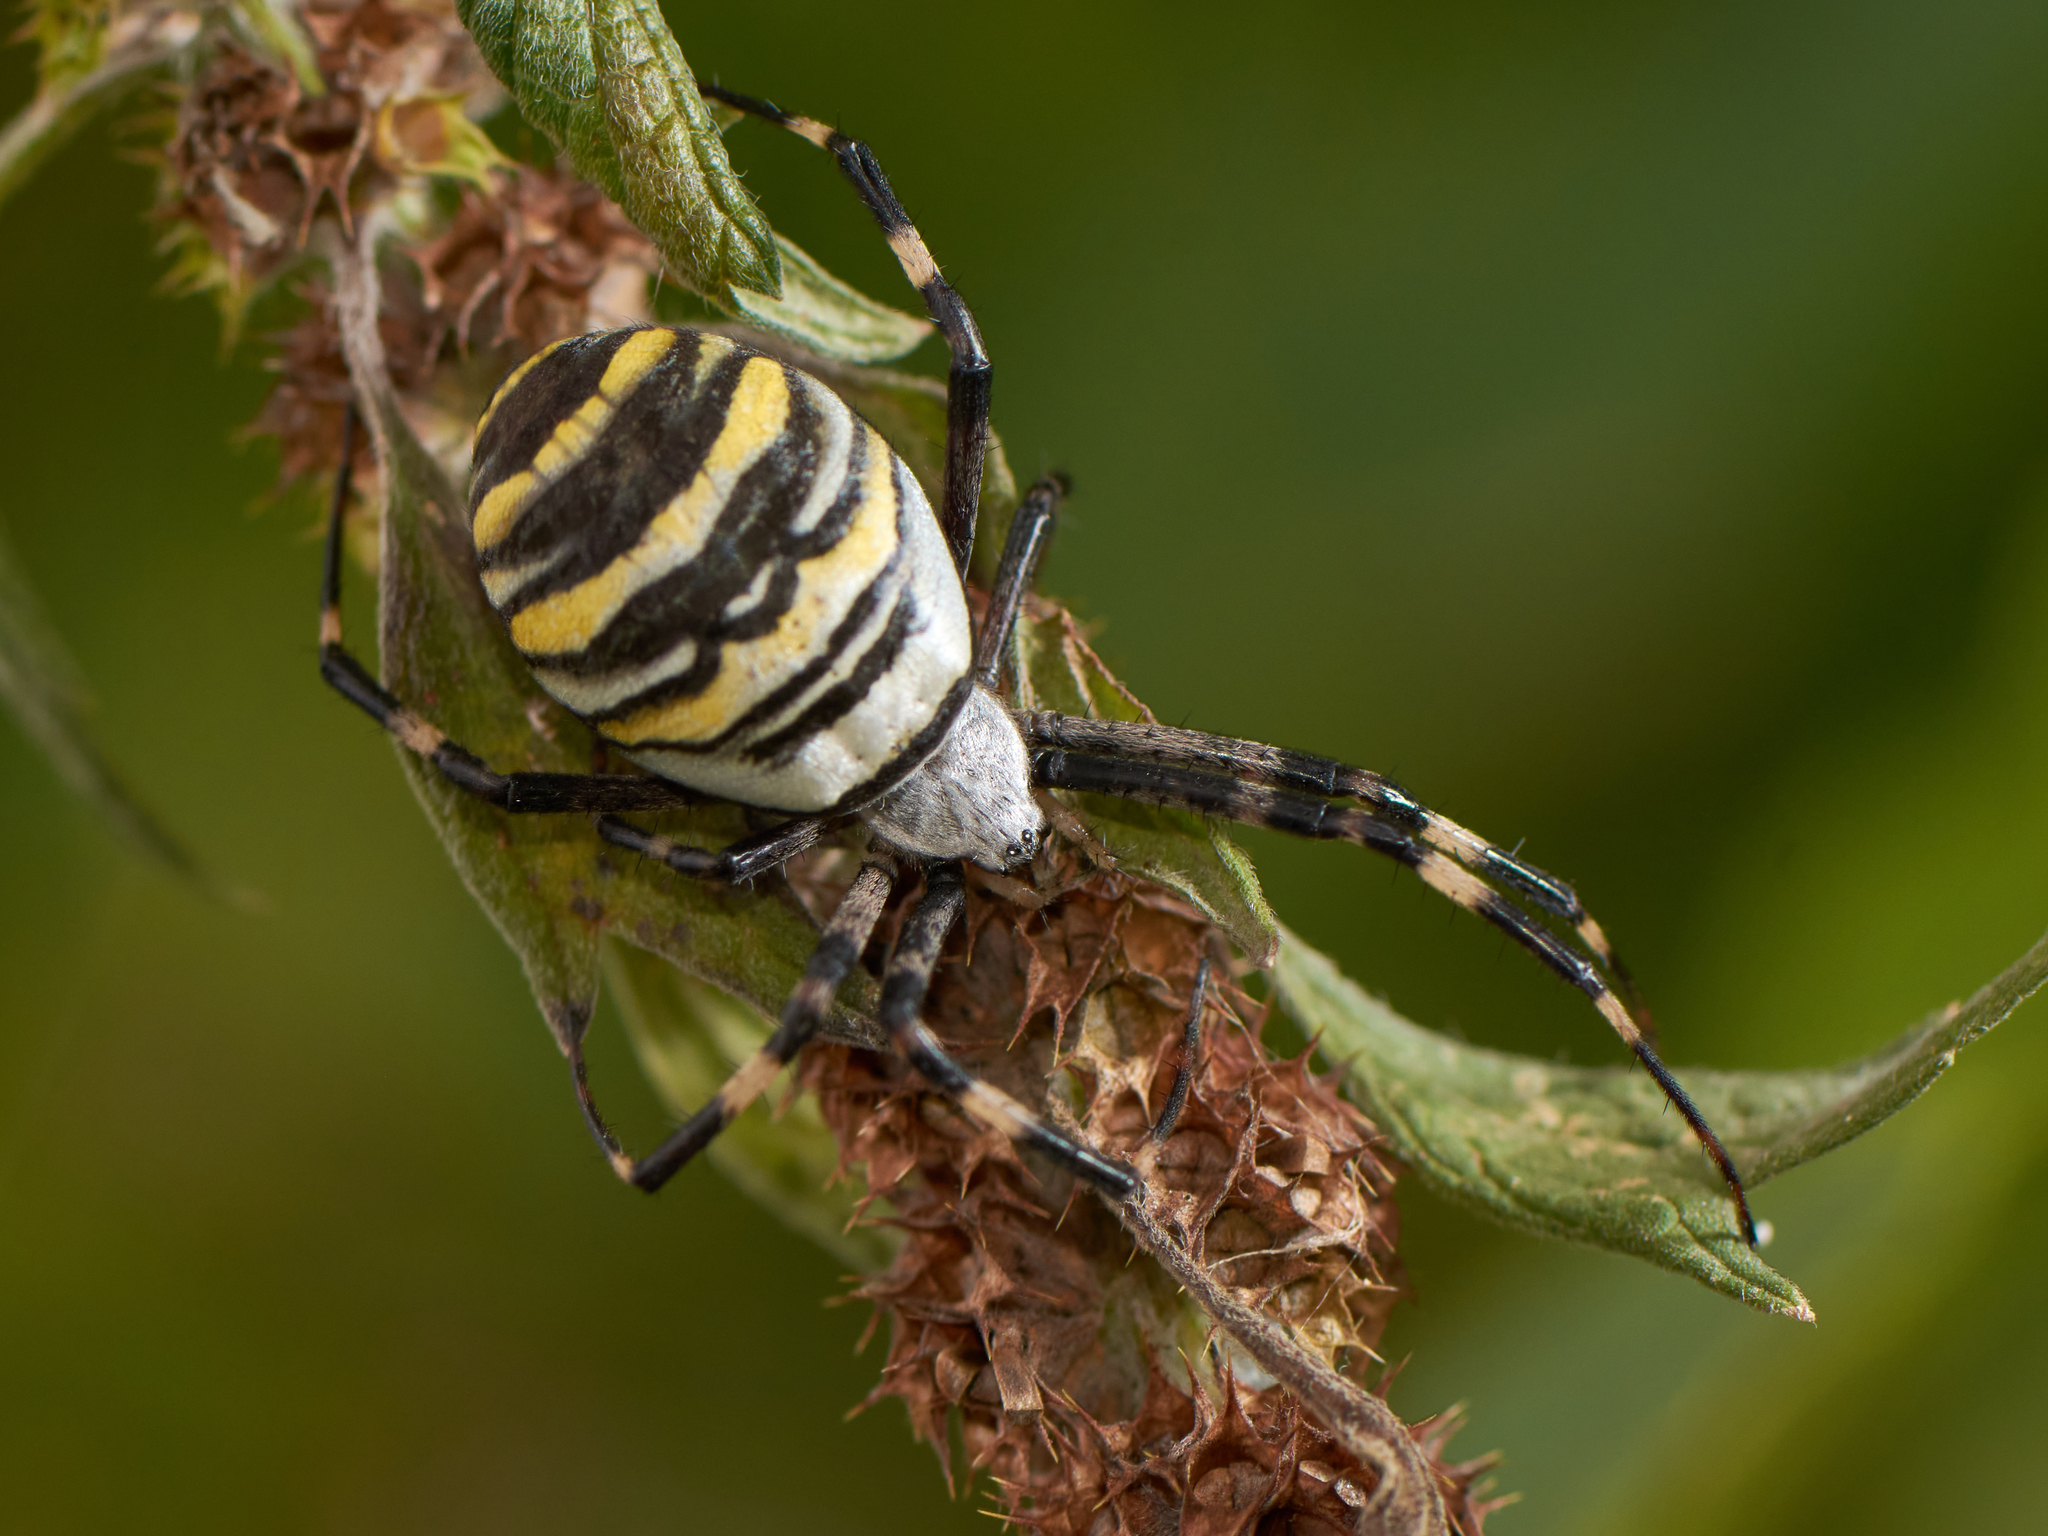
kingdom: Animalia
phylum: Arthropoda
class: Arachnida
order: Araneae
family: Araneidae
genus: Argiope
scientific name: Argiope bruennichi
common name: Wasp spider
